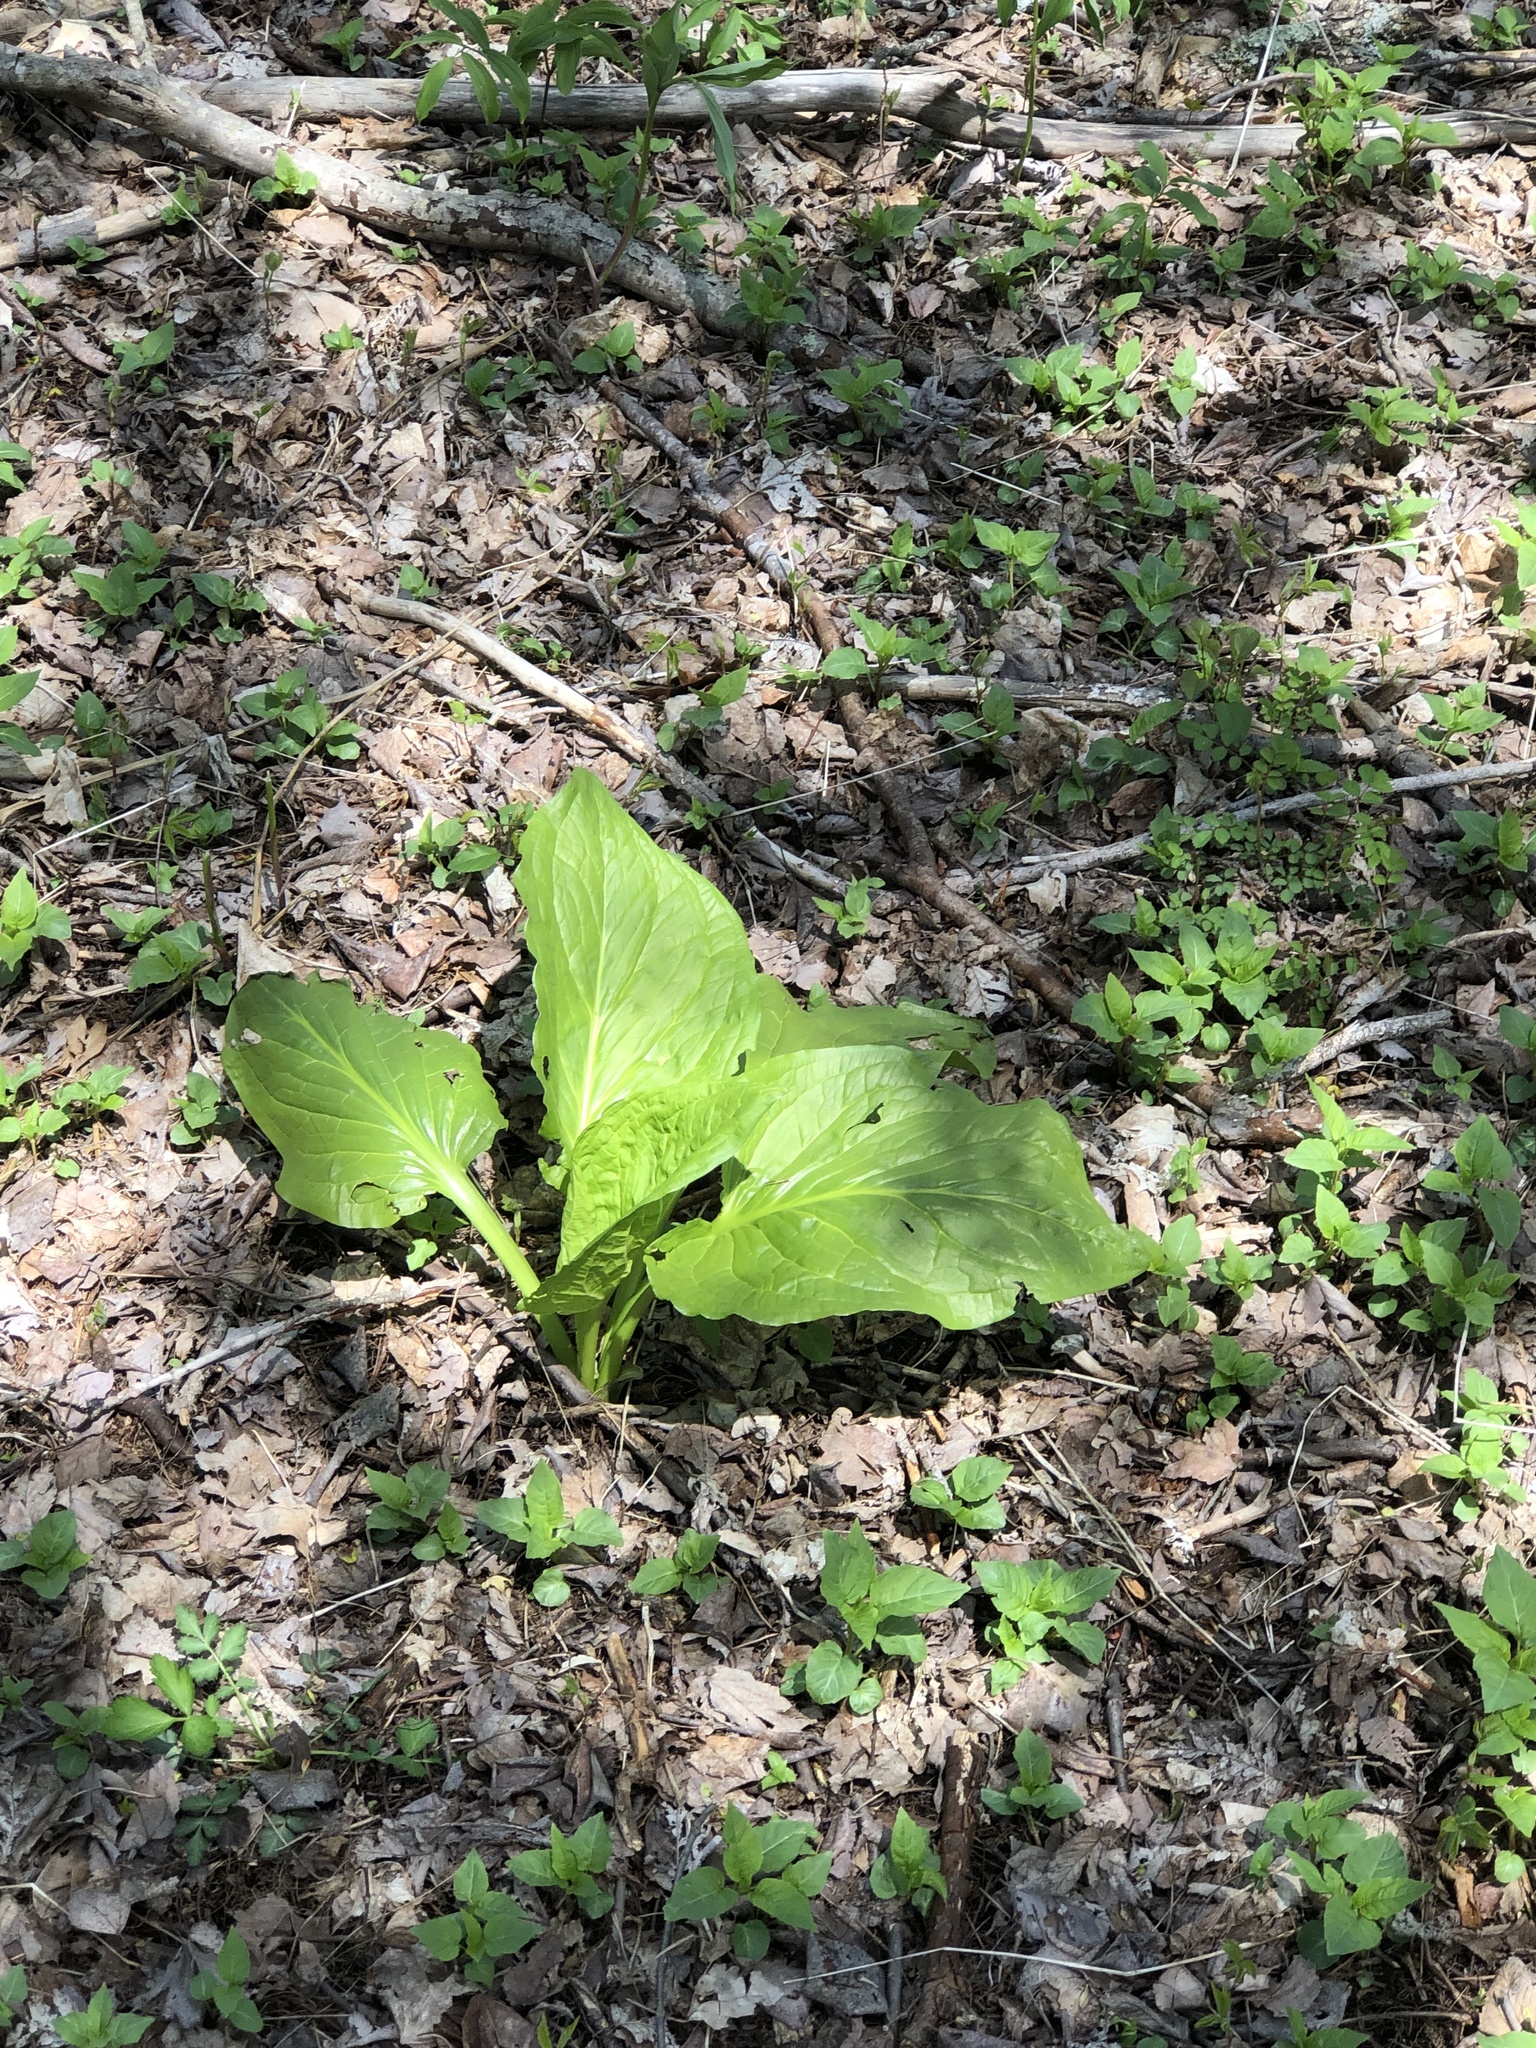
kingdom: Plantae
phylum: Tracheophyta
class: Liliopsida
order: Alismatales
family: Araceae
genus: Symplocarpus
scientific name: Symplocarpus foetidus
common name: Eastern skunk cabbage
